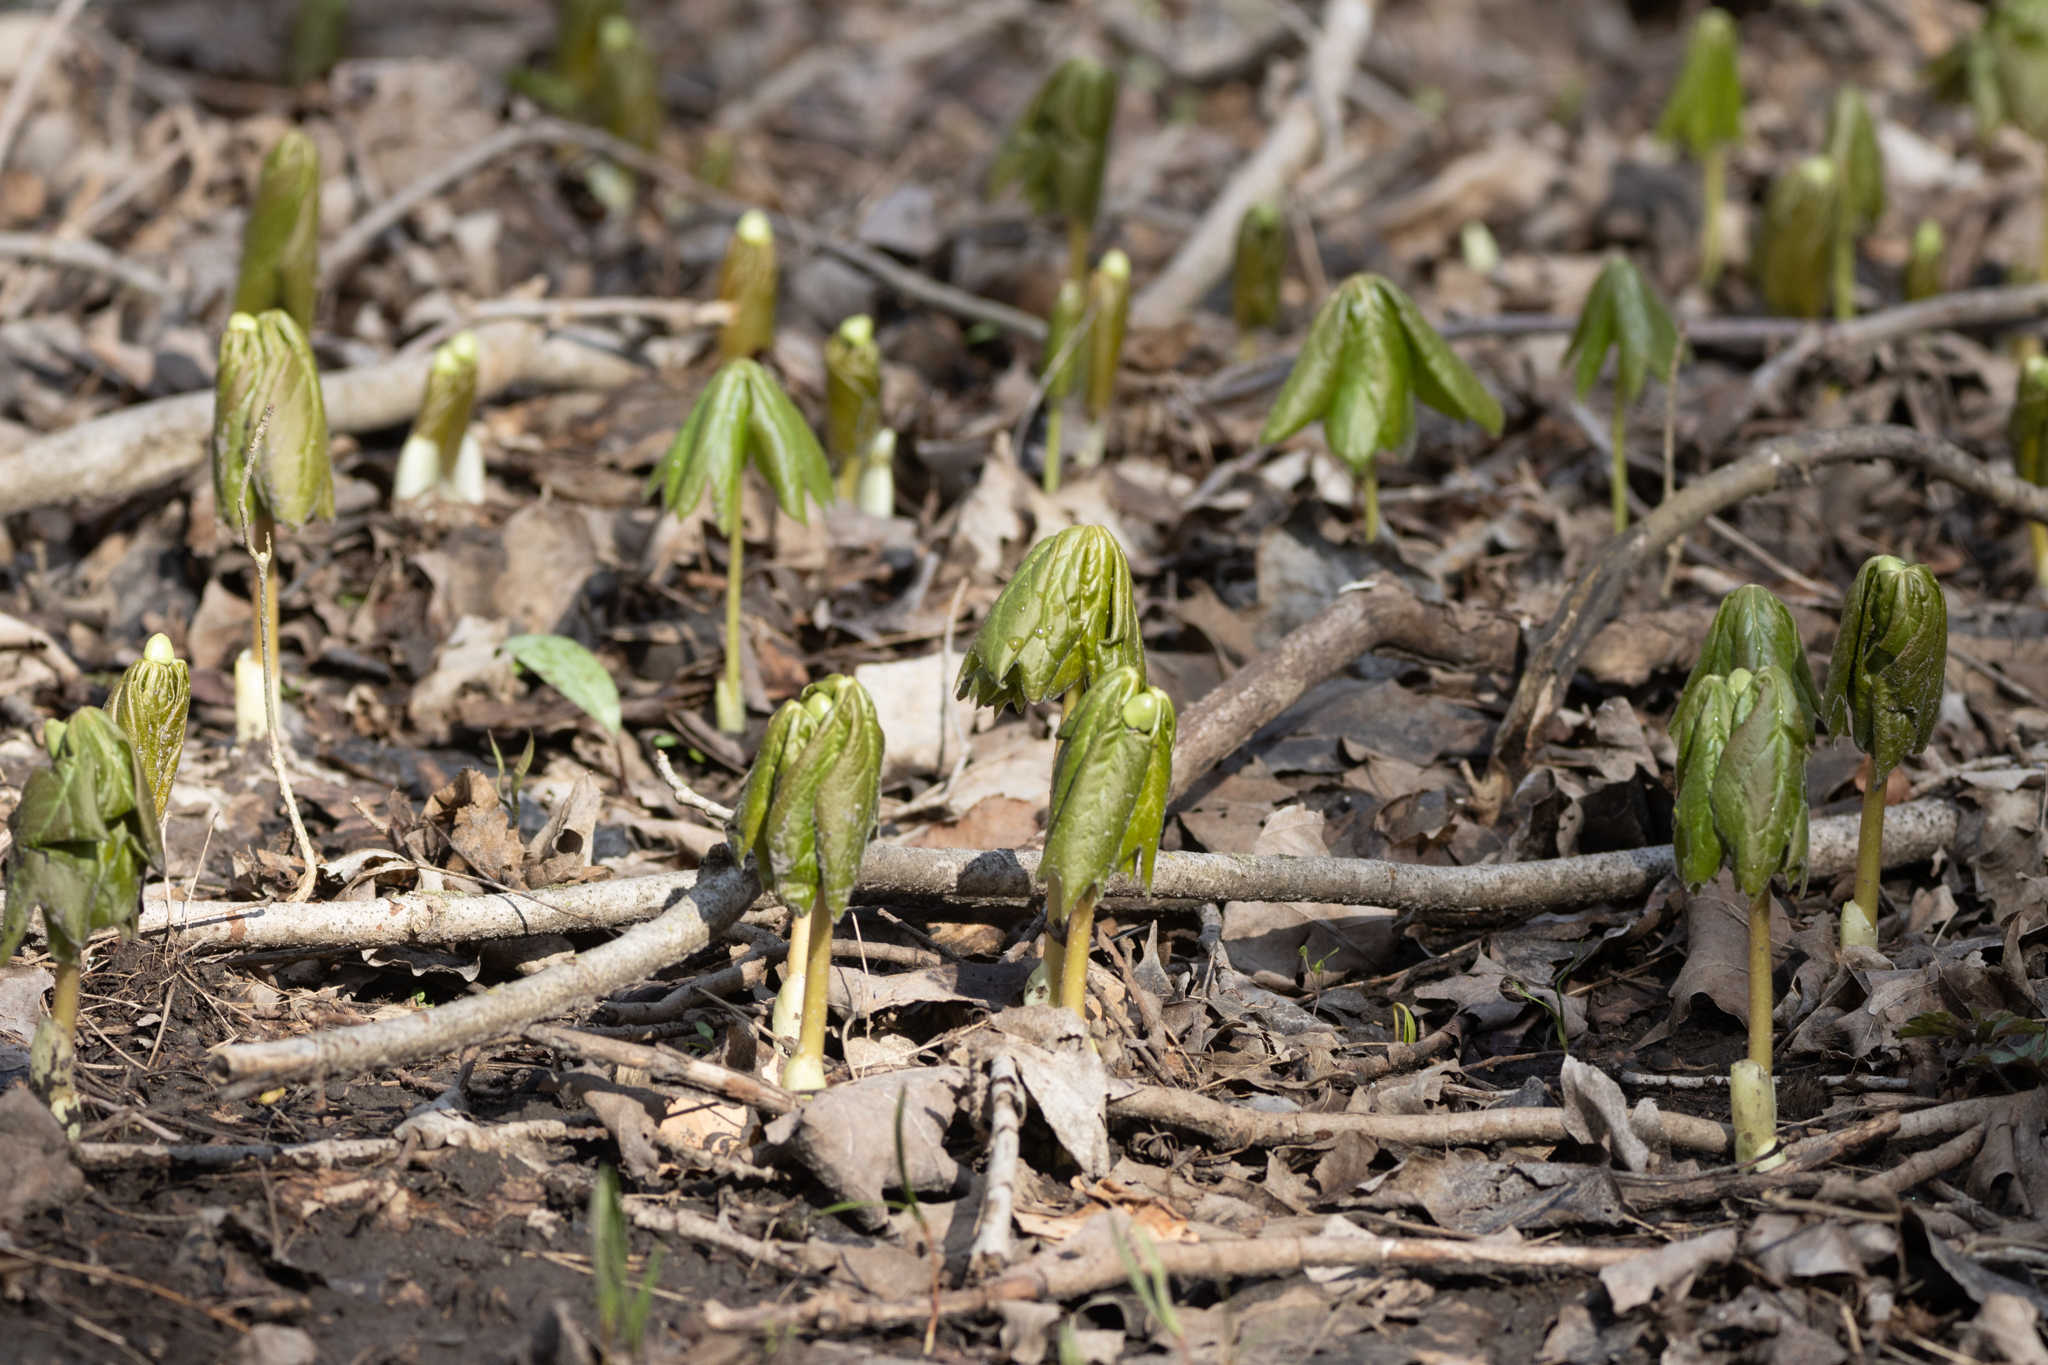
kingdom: Plantae
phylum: Tracheophyta
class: Magnoliopsida
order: Ranunculales
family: Berberidaceae
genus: Podophyllum
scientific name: Podophyllum peltatum
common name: Wild mandrake
